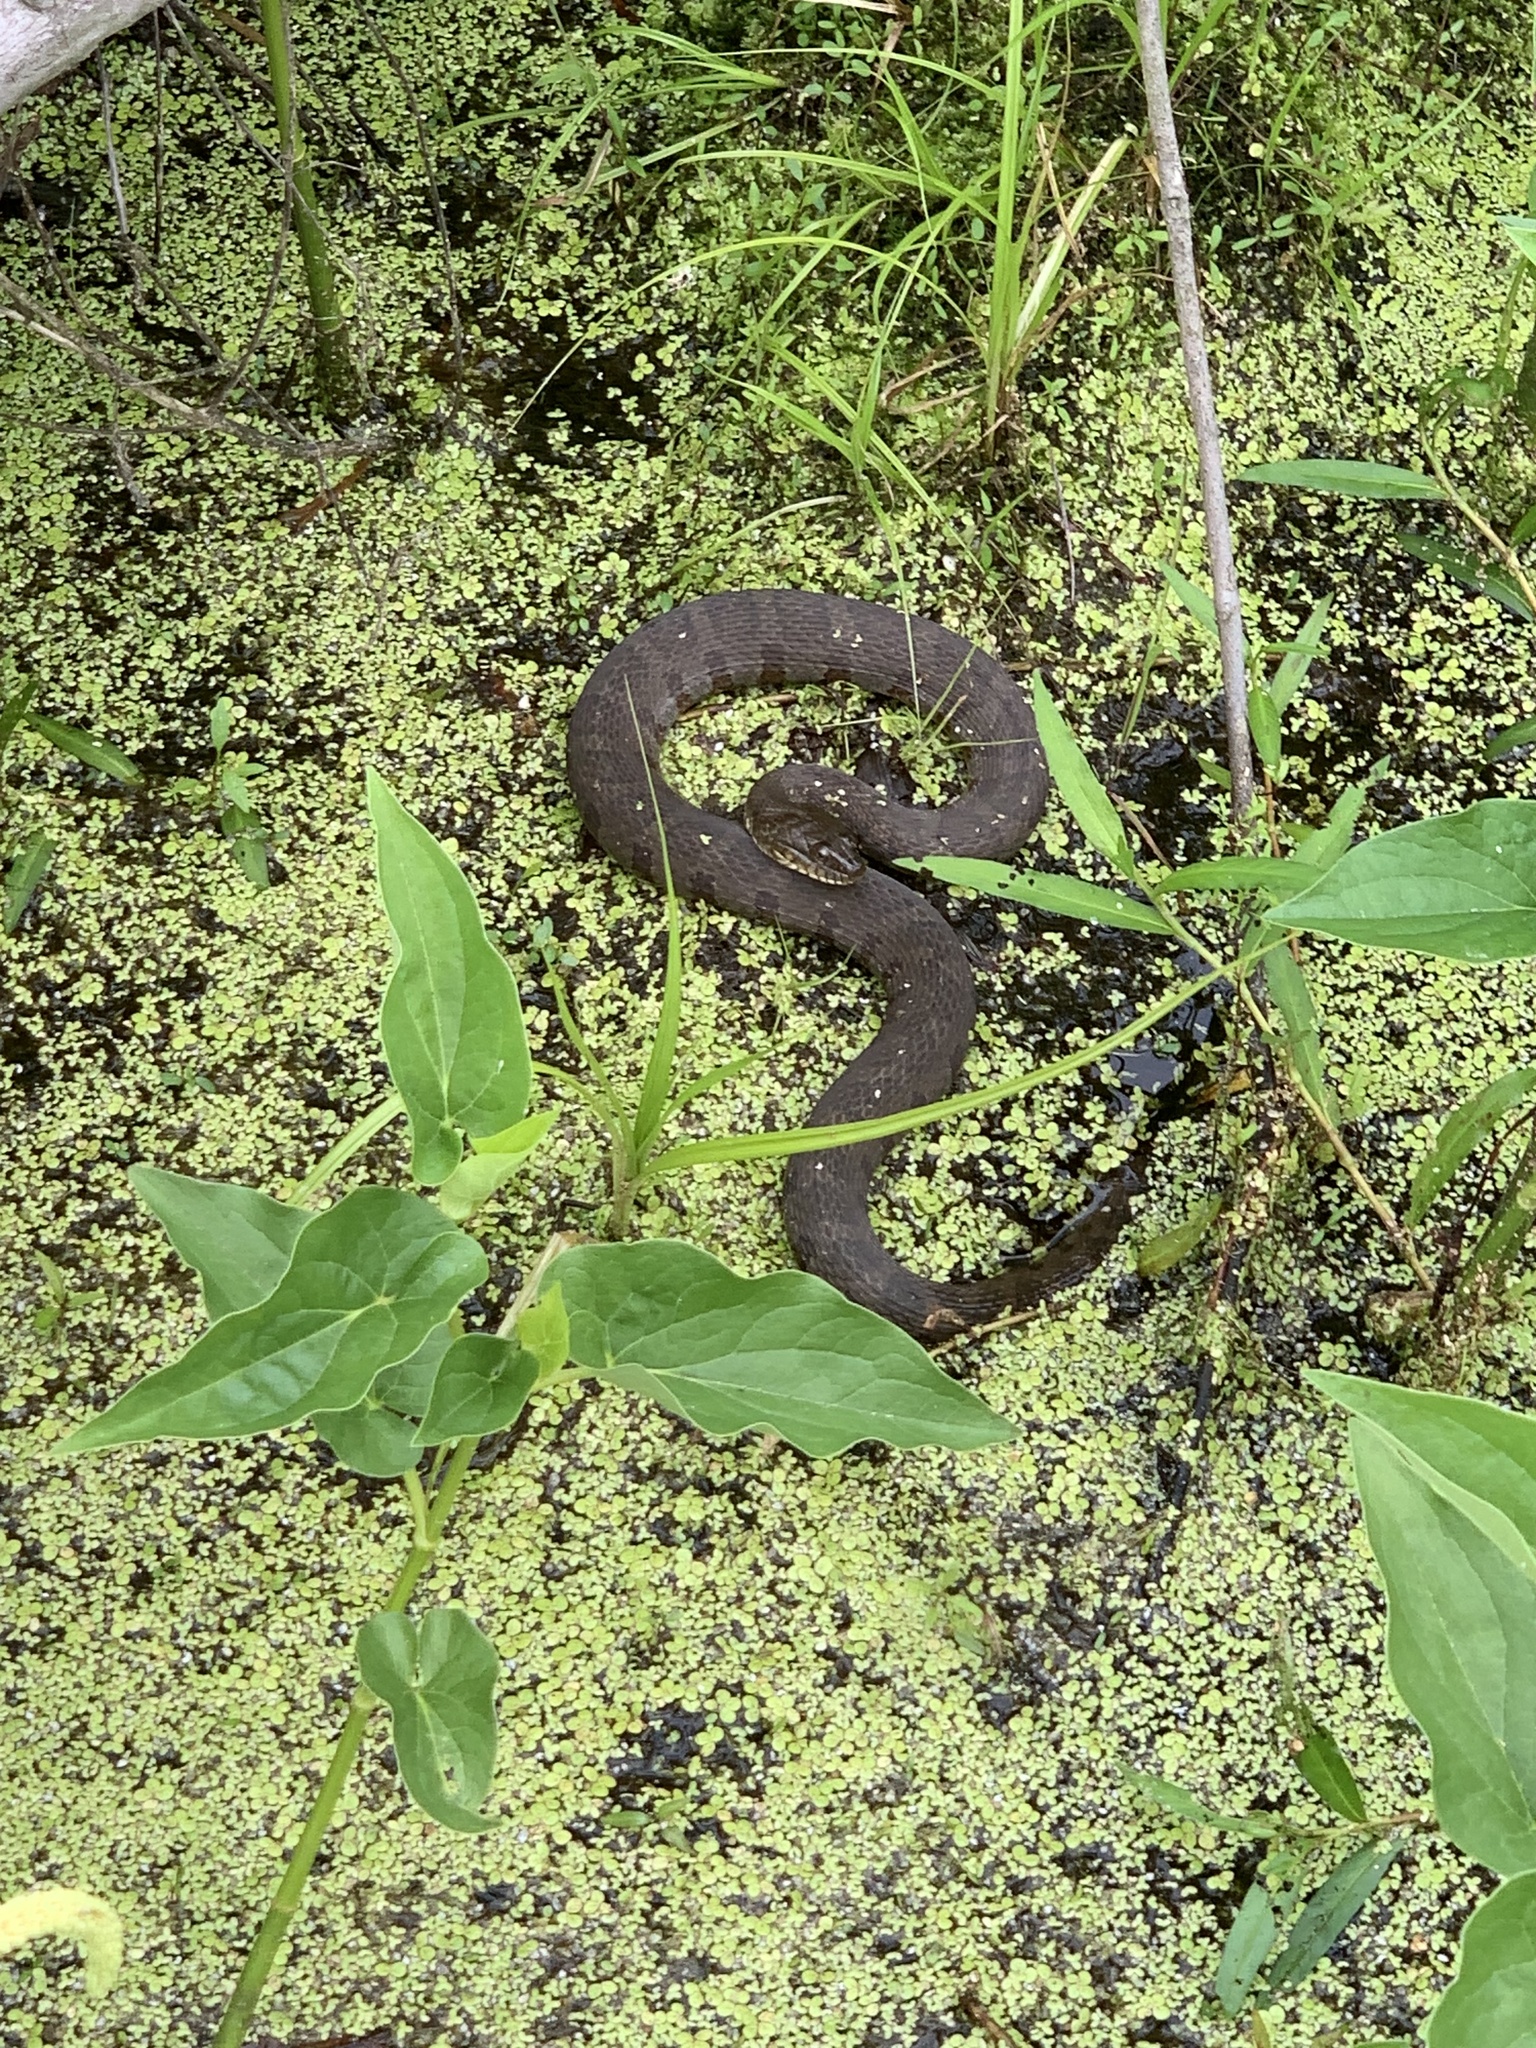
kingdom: Animalia
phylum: Chordata
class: Squamata
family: Colubridae
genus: Nerodia
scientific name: Nerodia sipedon
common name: Northern water snake
